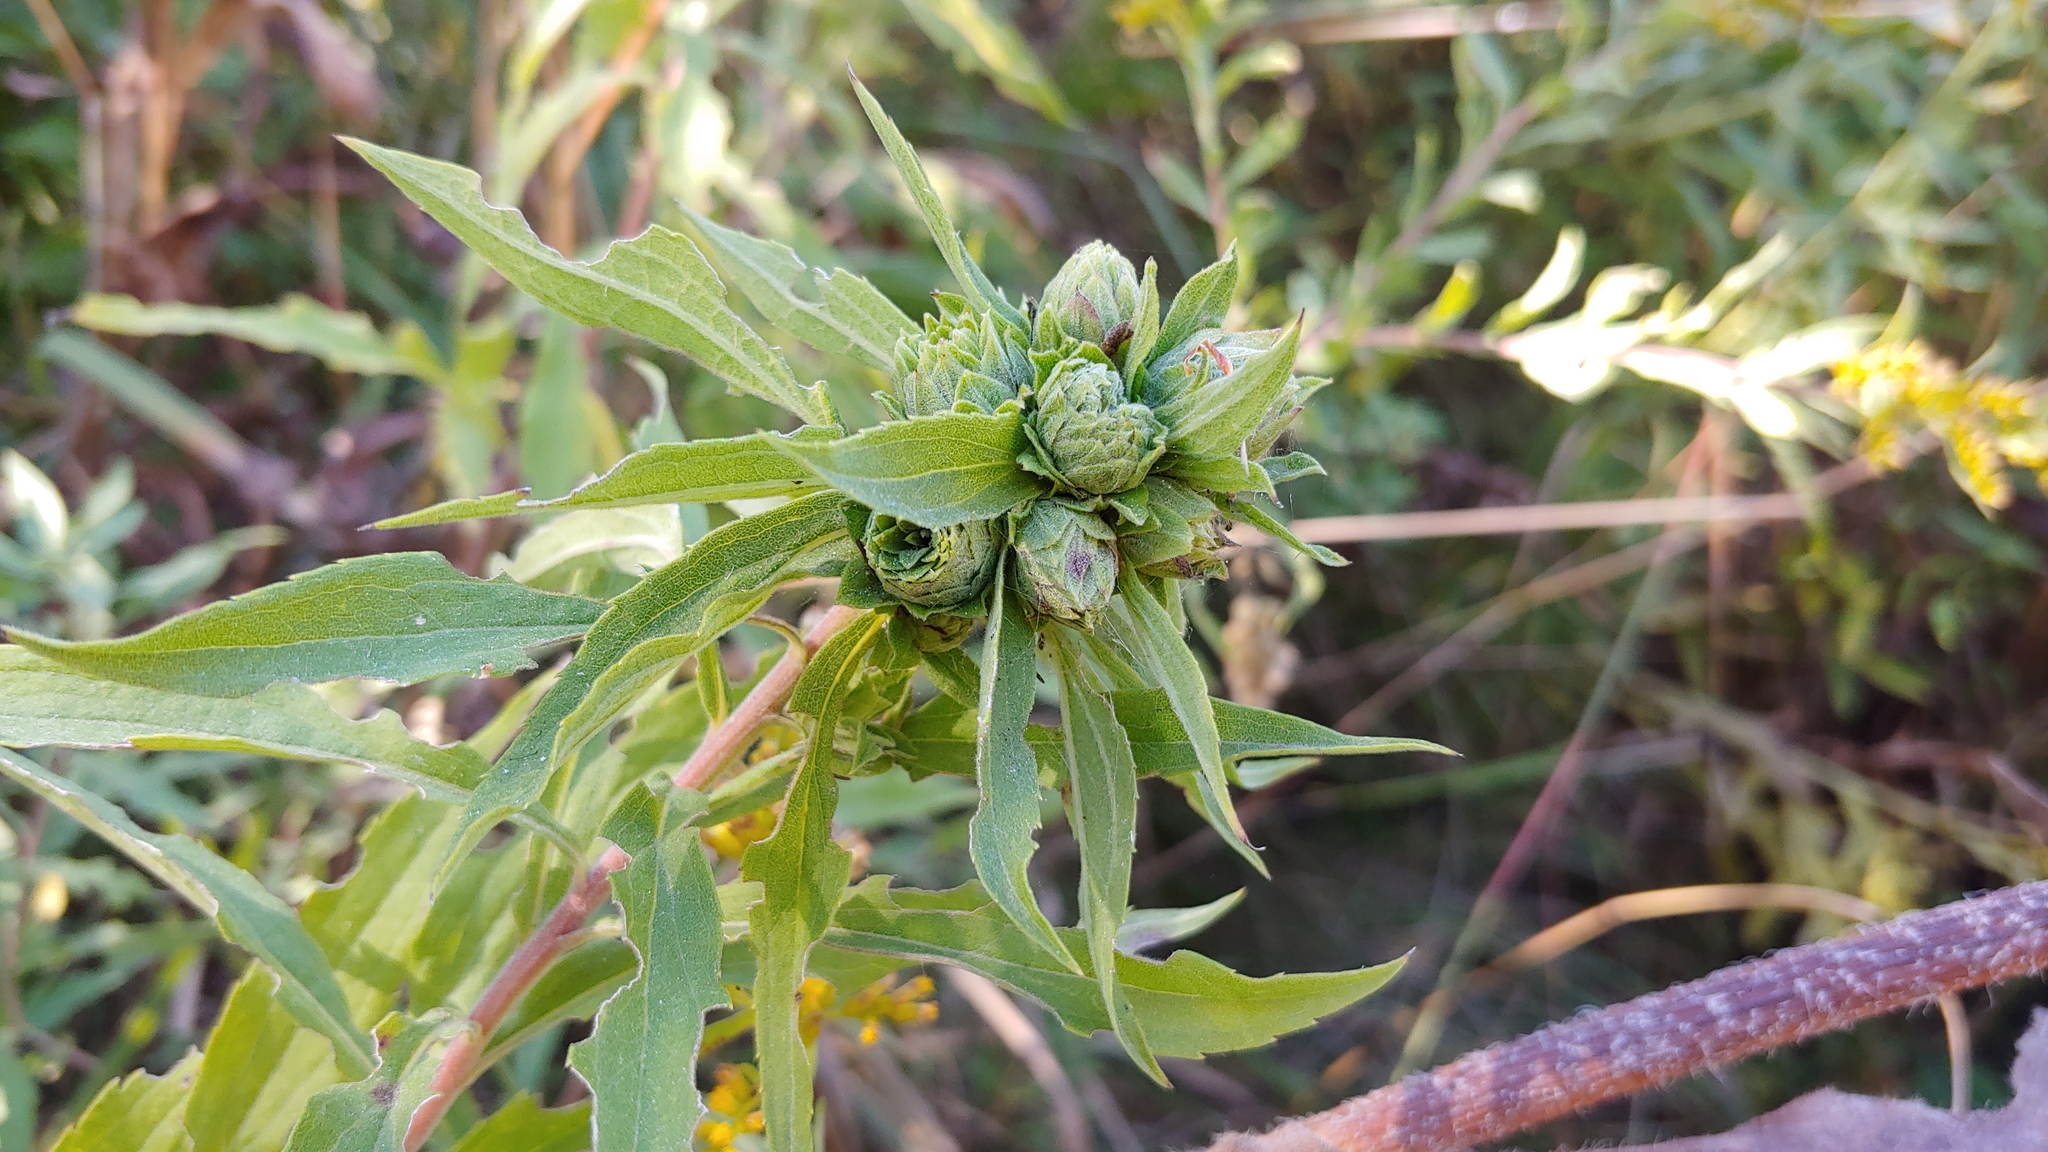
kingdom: Animalia
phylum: Arthropoda
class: Insecta
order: Diptera
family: Tephritidae
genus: Procecidochares
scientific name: Procecidochares atra
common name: Goldenrod brussels sprout gall fly
